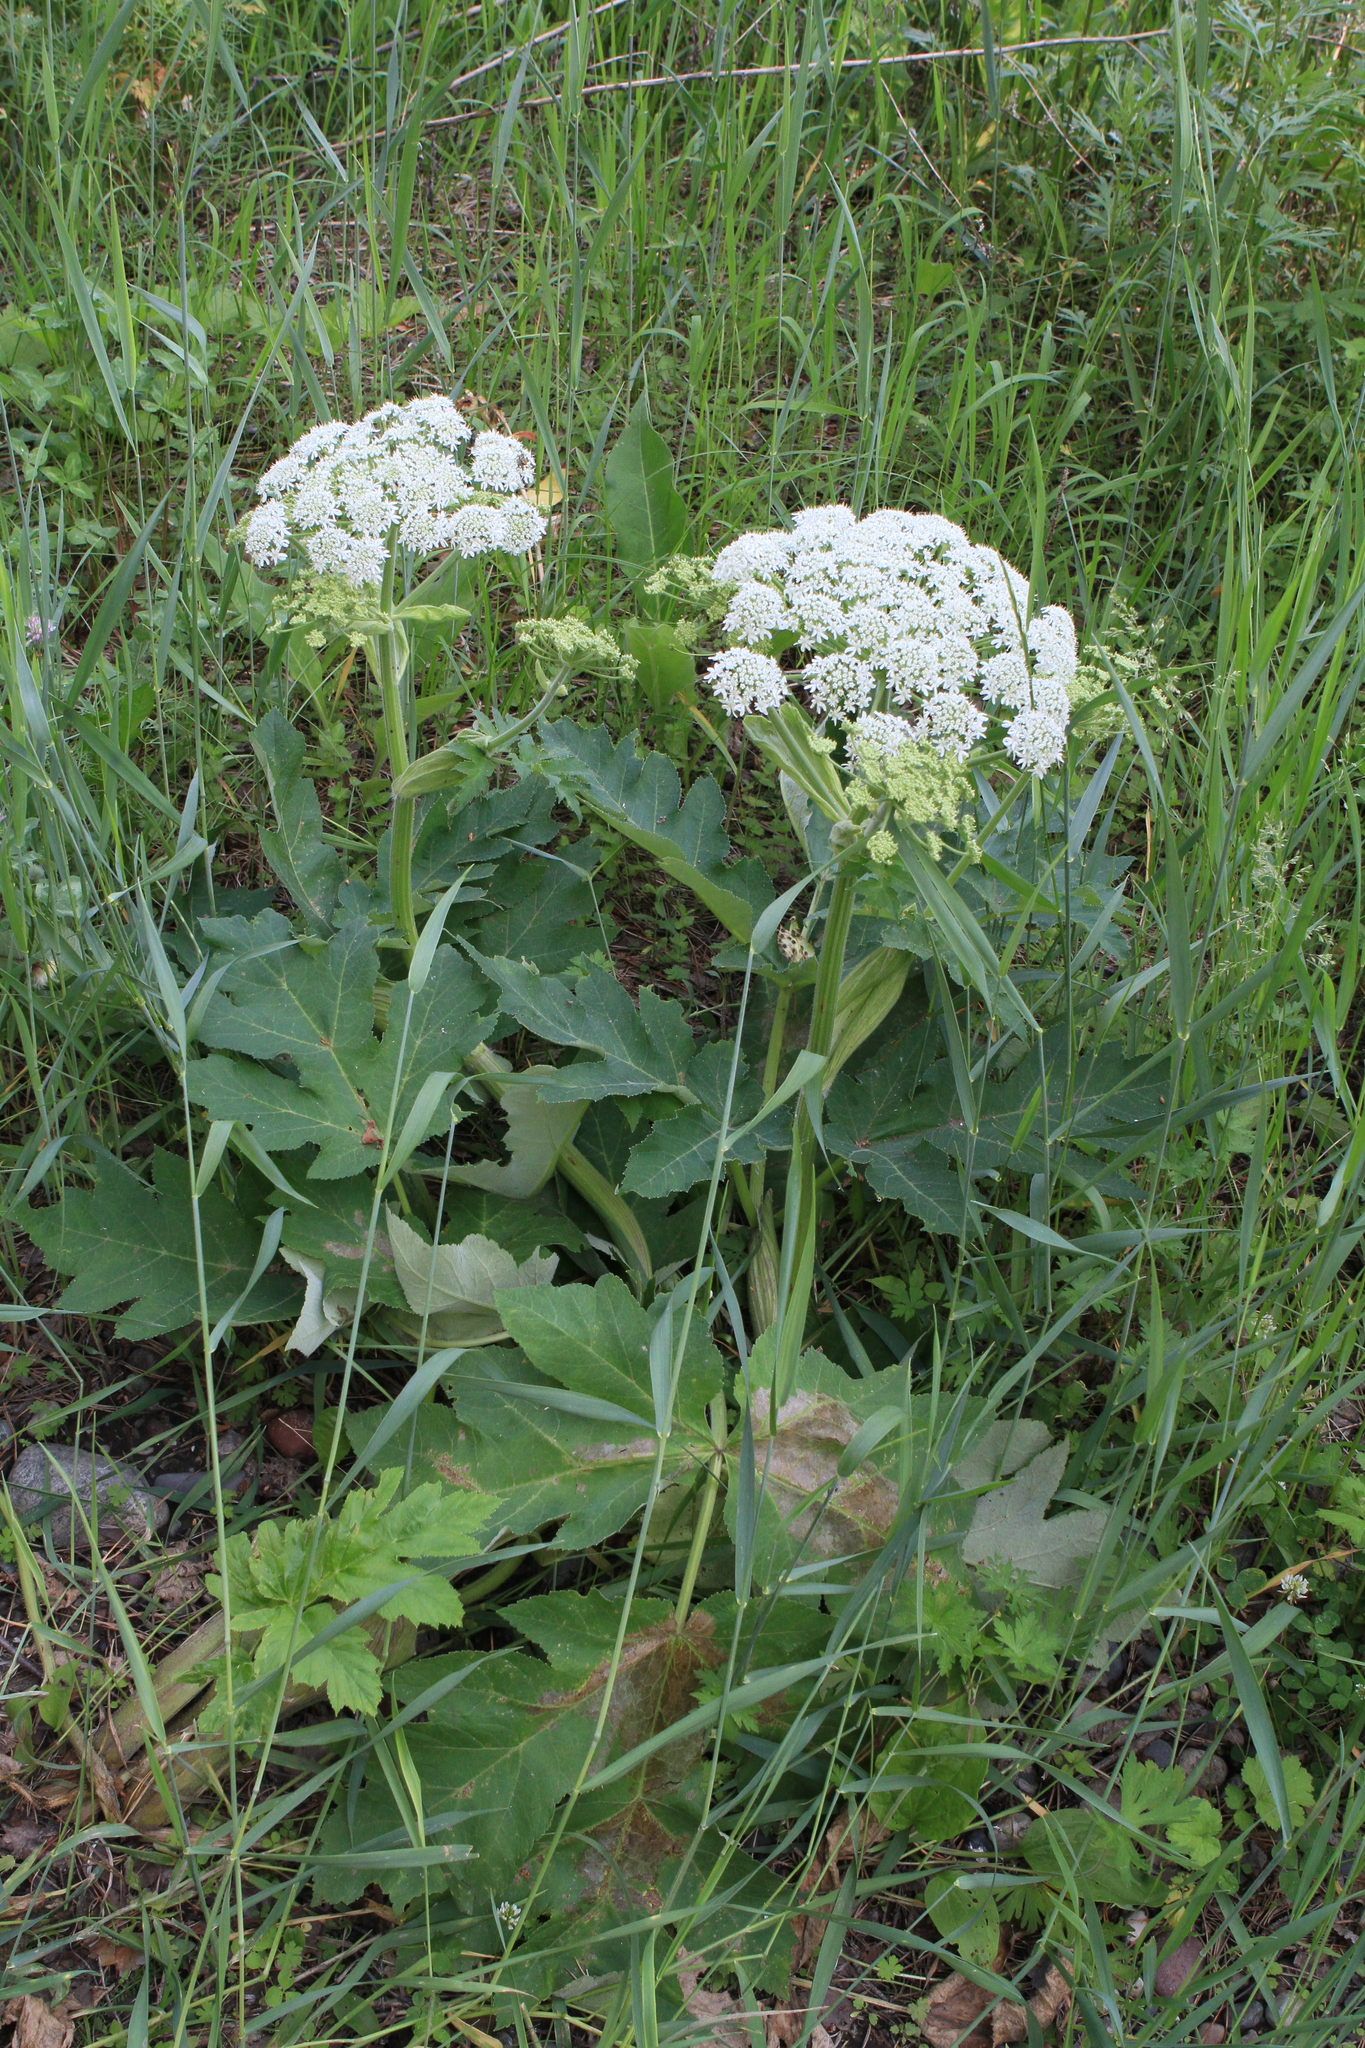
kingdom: Plantae
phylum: Tracheophyta
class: Magnoliopsida
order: Apiales
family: Apiaceae
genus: Heracleum
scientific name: Heracleum dissectum
